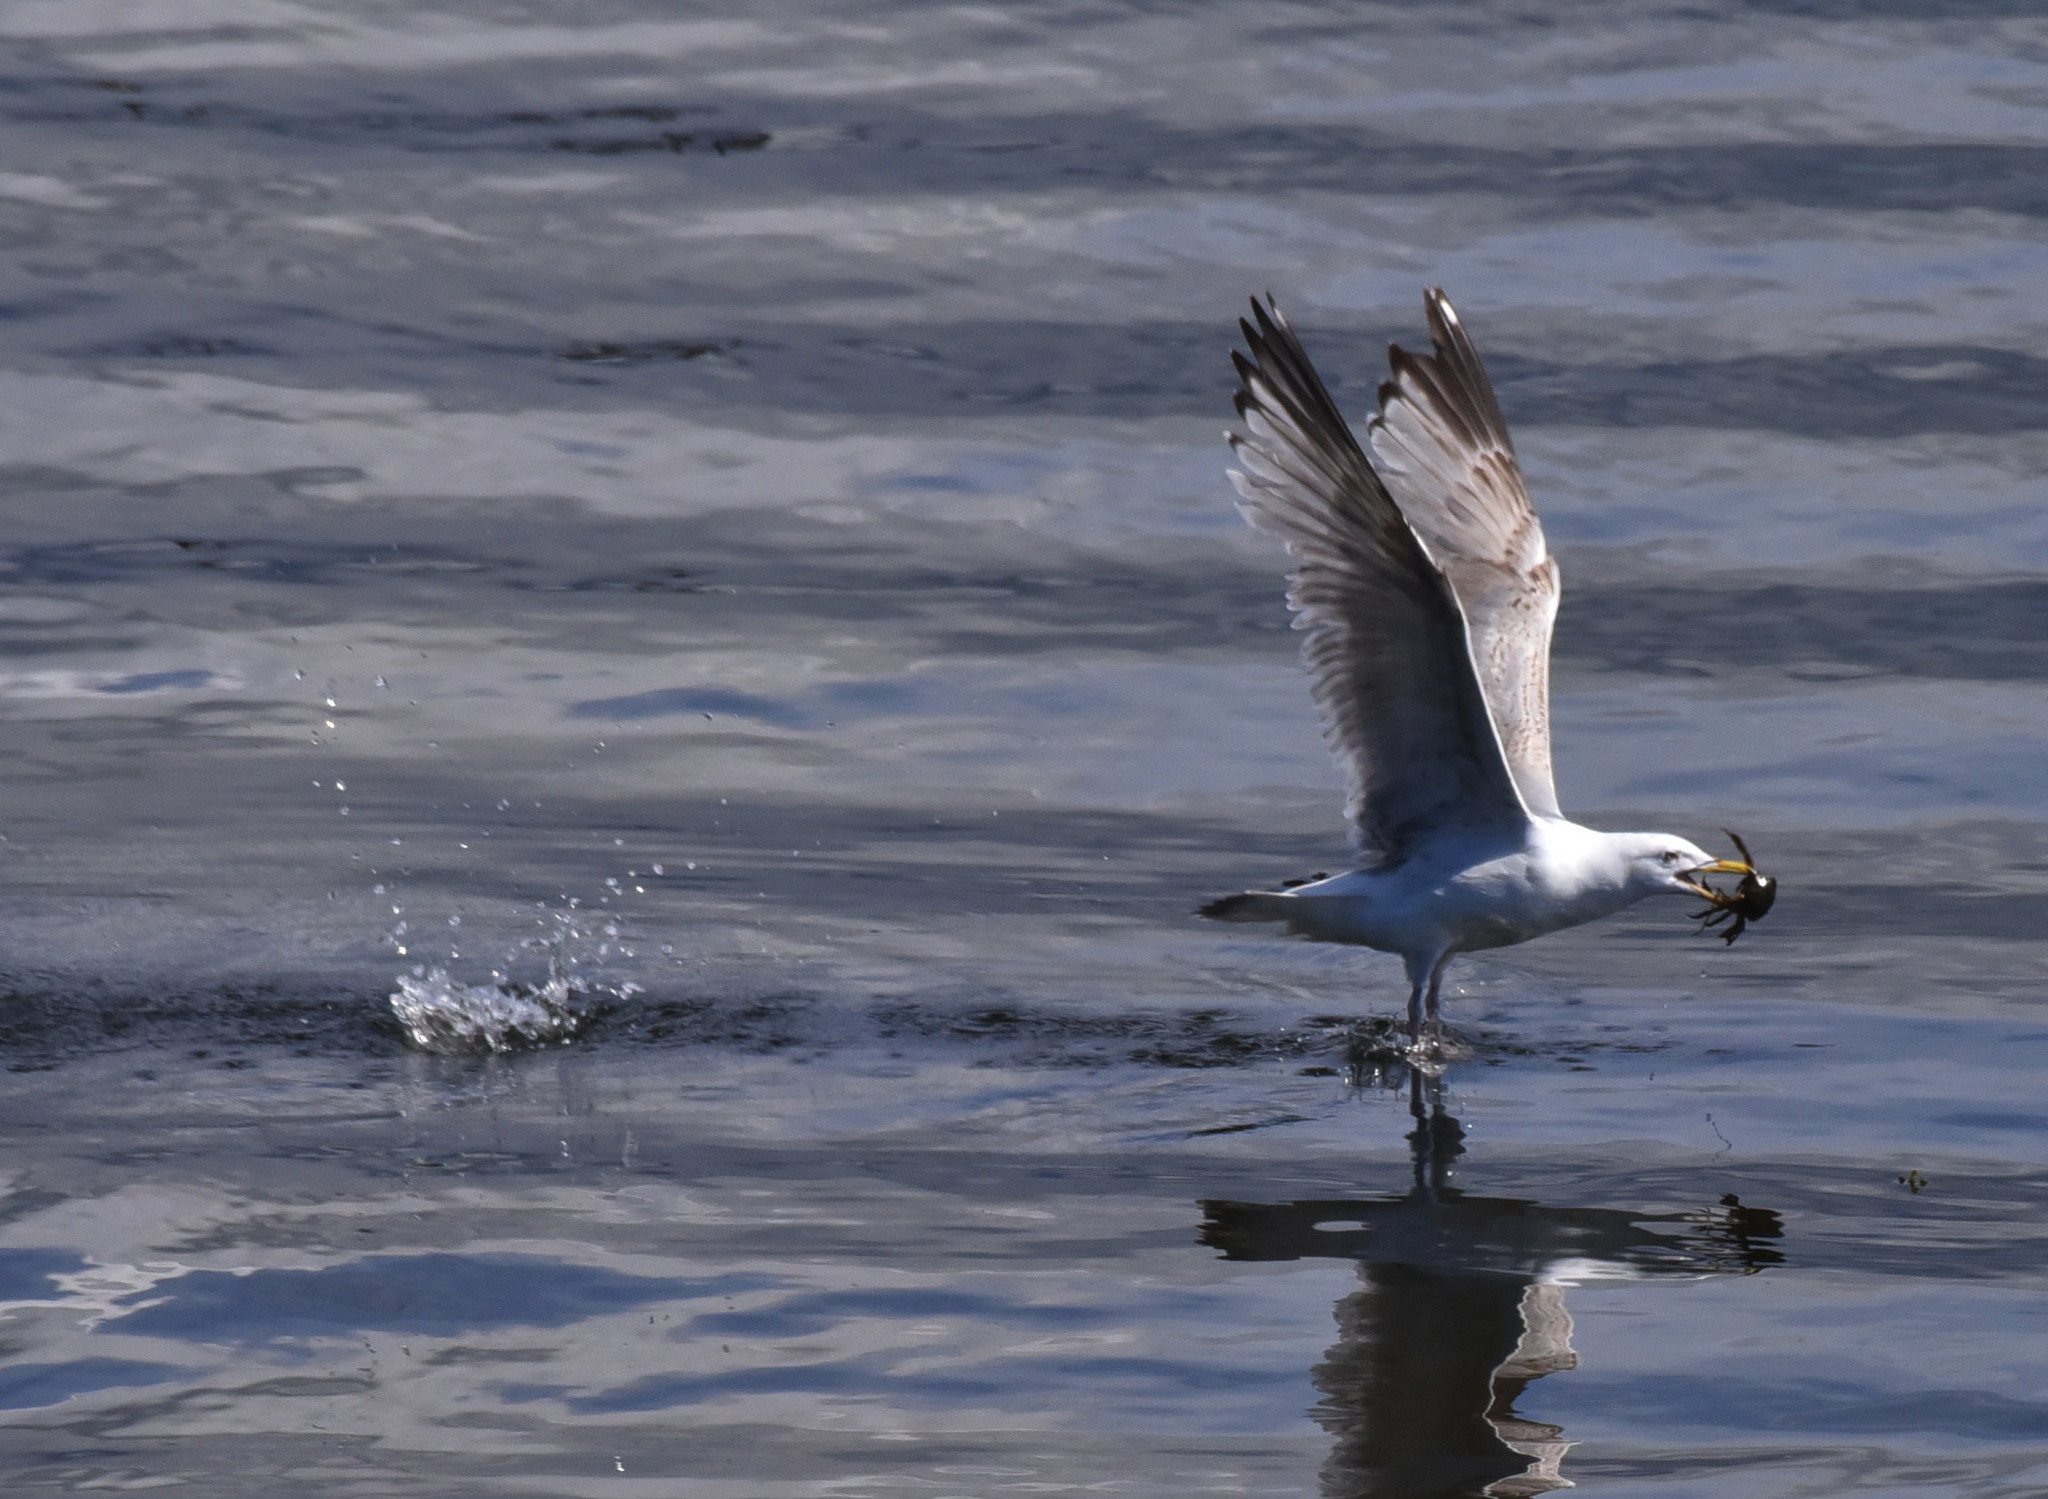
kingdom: Animalia
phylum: Chordata
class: Aves
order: Charadriiformes
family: Laridae
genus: Larus
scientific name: Larus argentatus
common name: Herring gull
